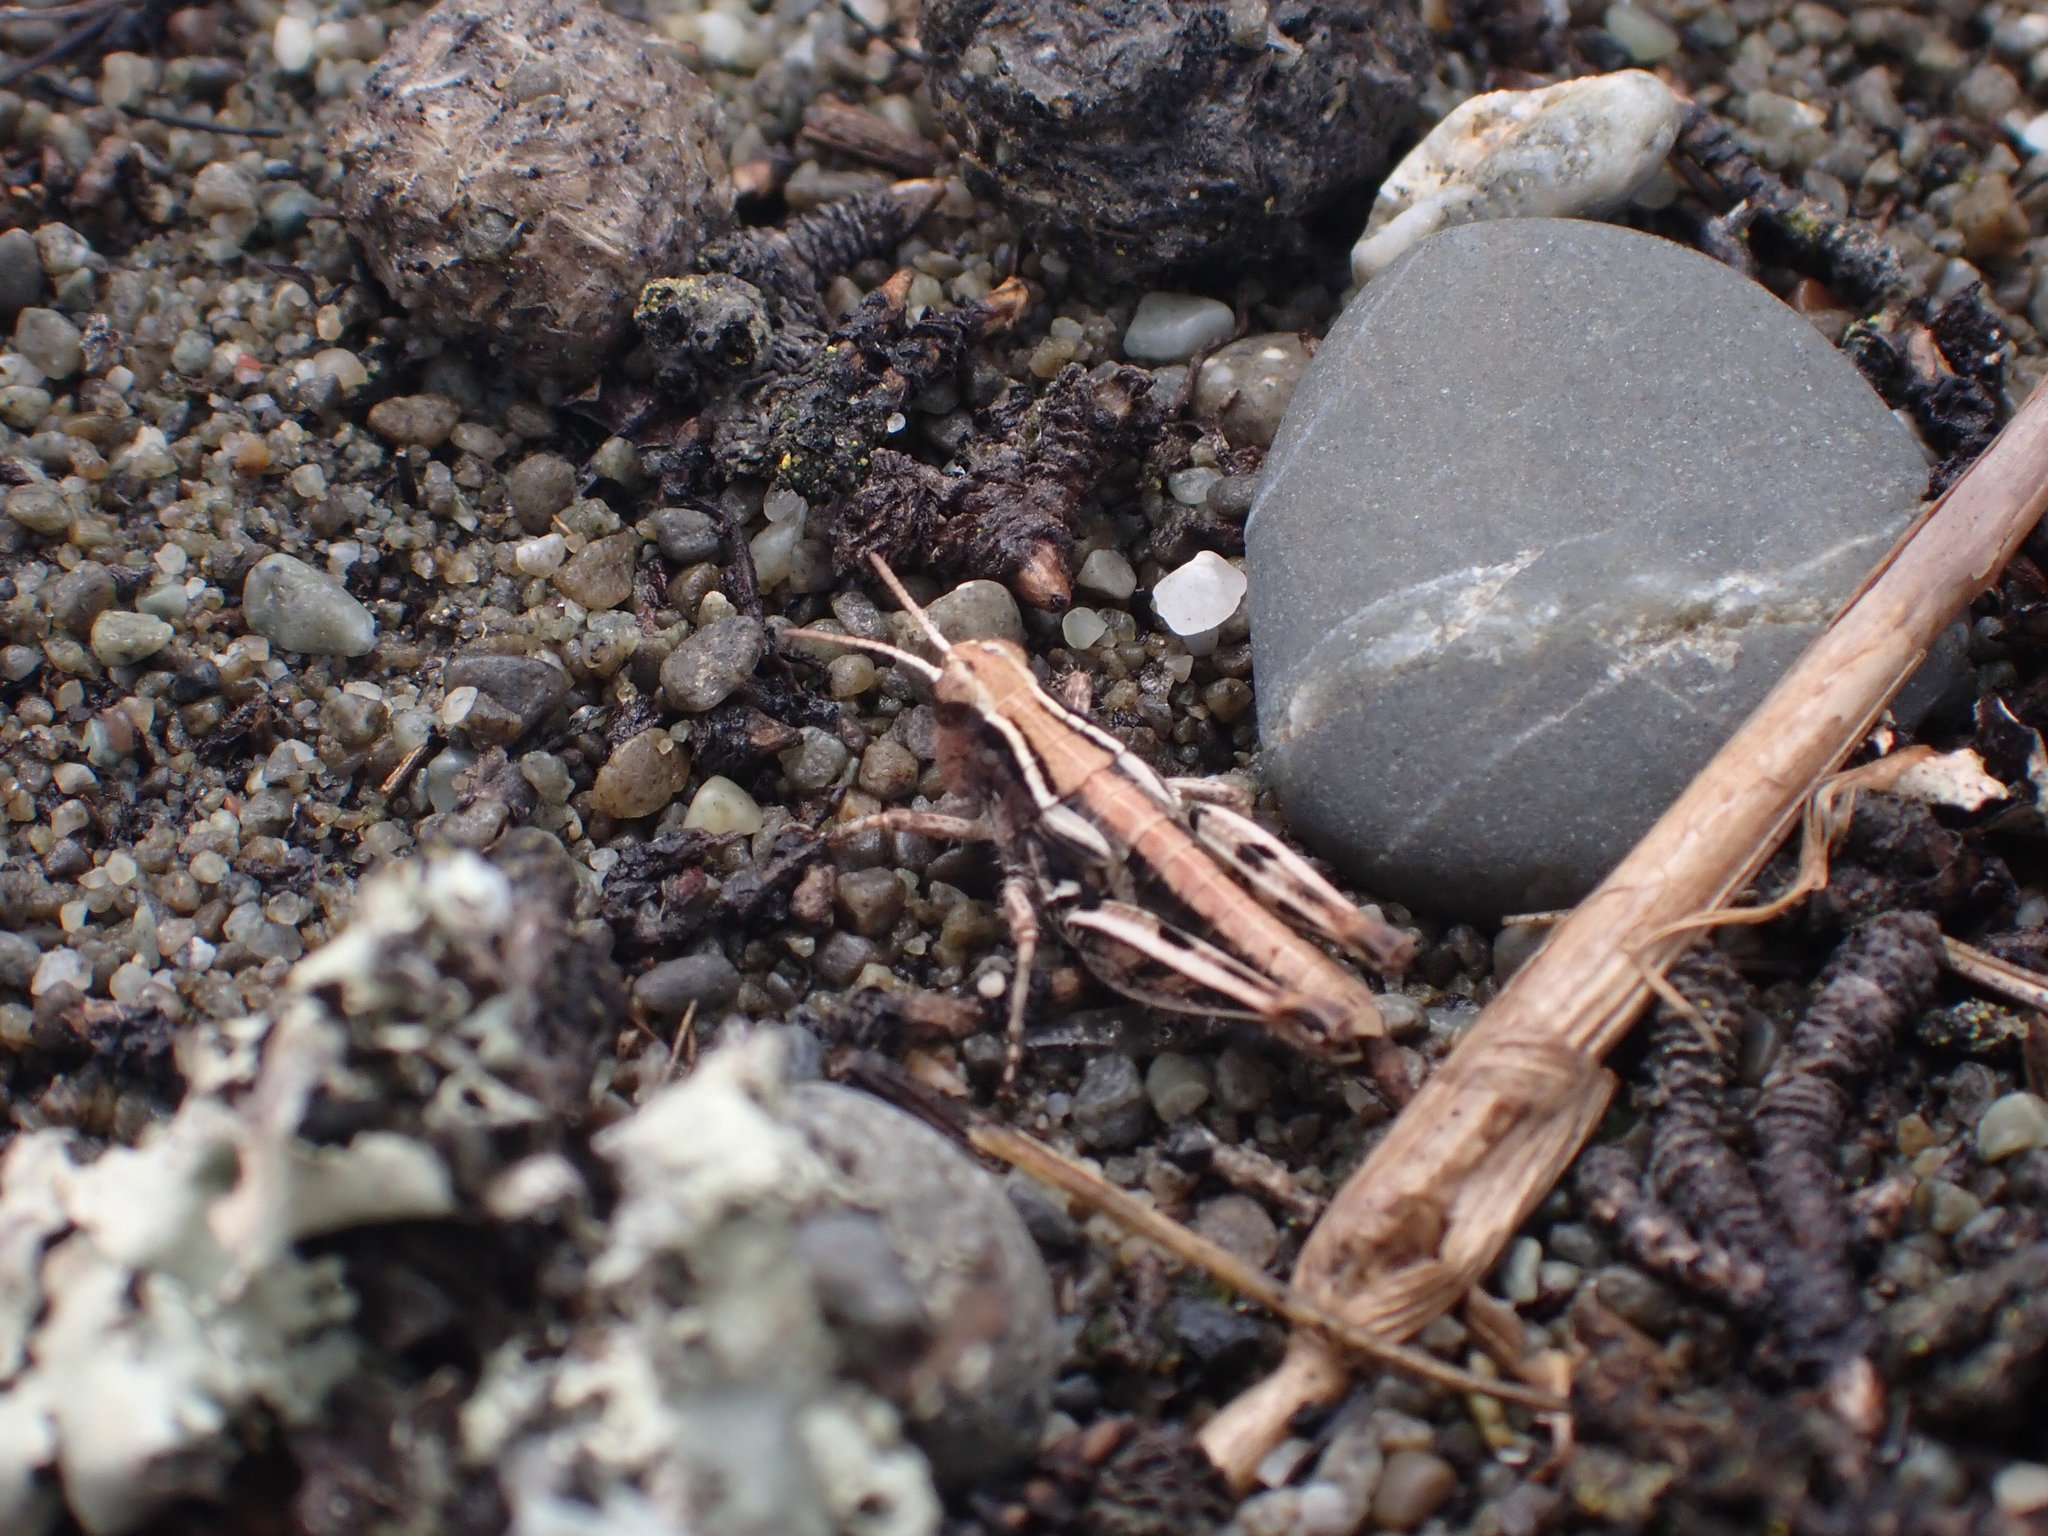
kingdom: Animalia
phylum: Arthropoda
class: Insecta
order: Orthoptera
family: Acrididae
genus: Phaulacridium
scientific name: Phaulacridium marginale
